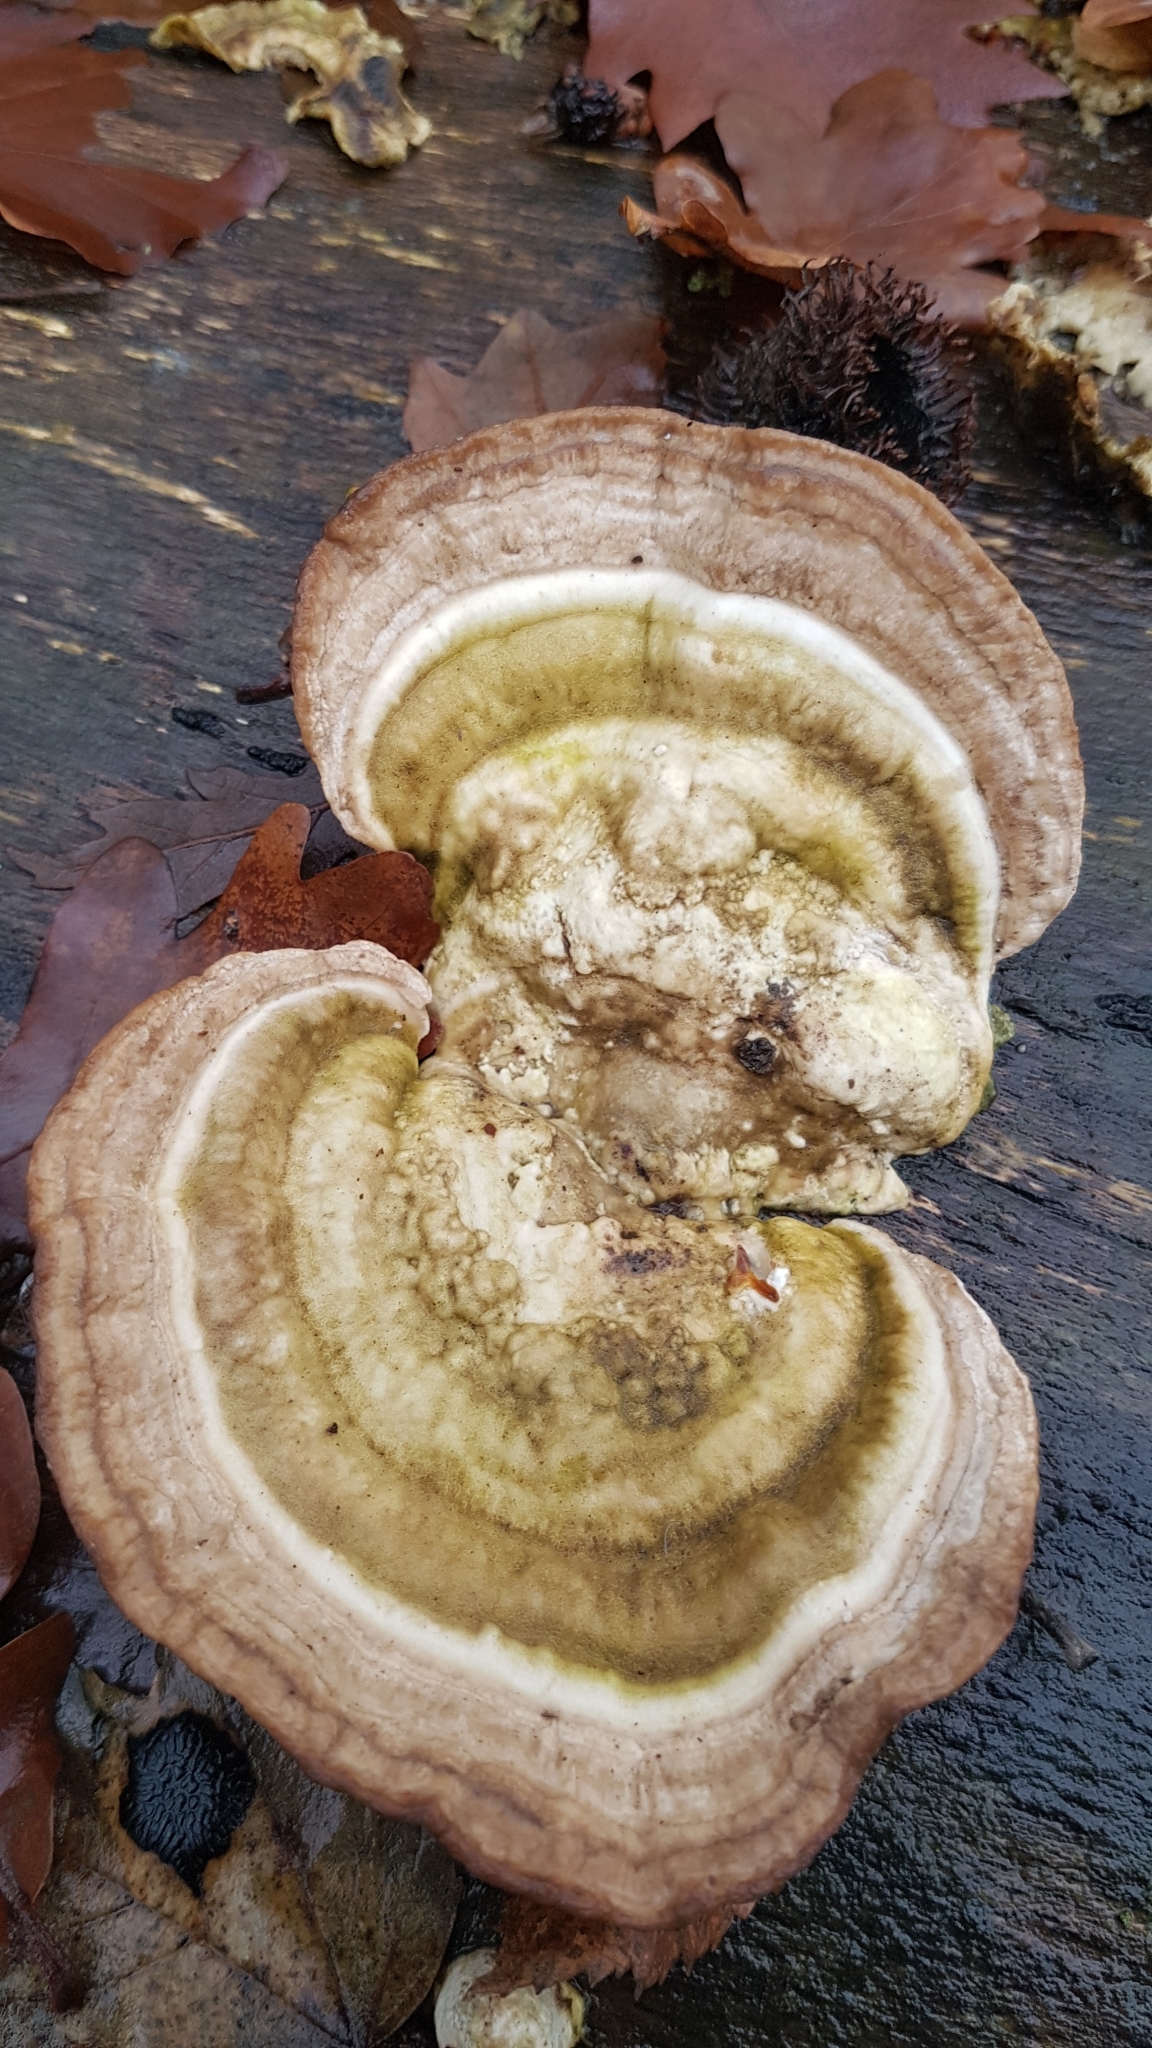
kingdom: Fungi
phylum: Basidiomycota
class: Agaricomycetes
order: Polyporales
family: Polyporaceae
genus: Trametes
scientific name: Trametes gibbosa
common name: Lumpy bracket
